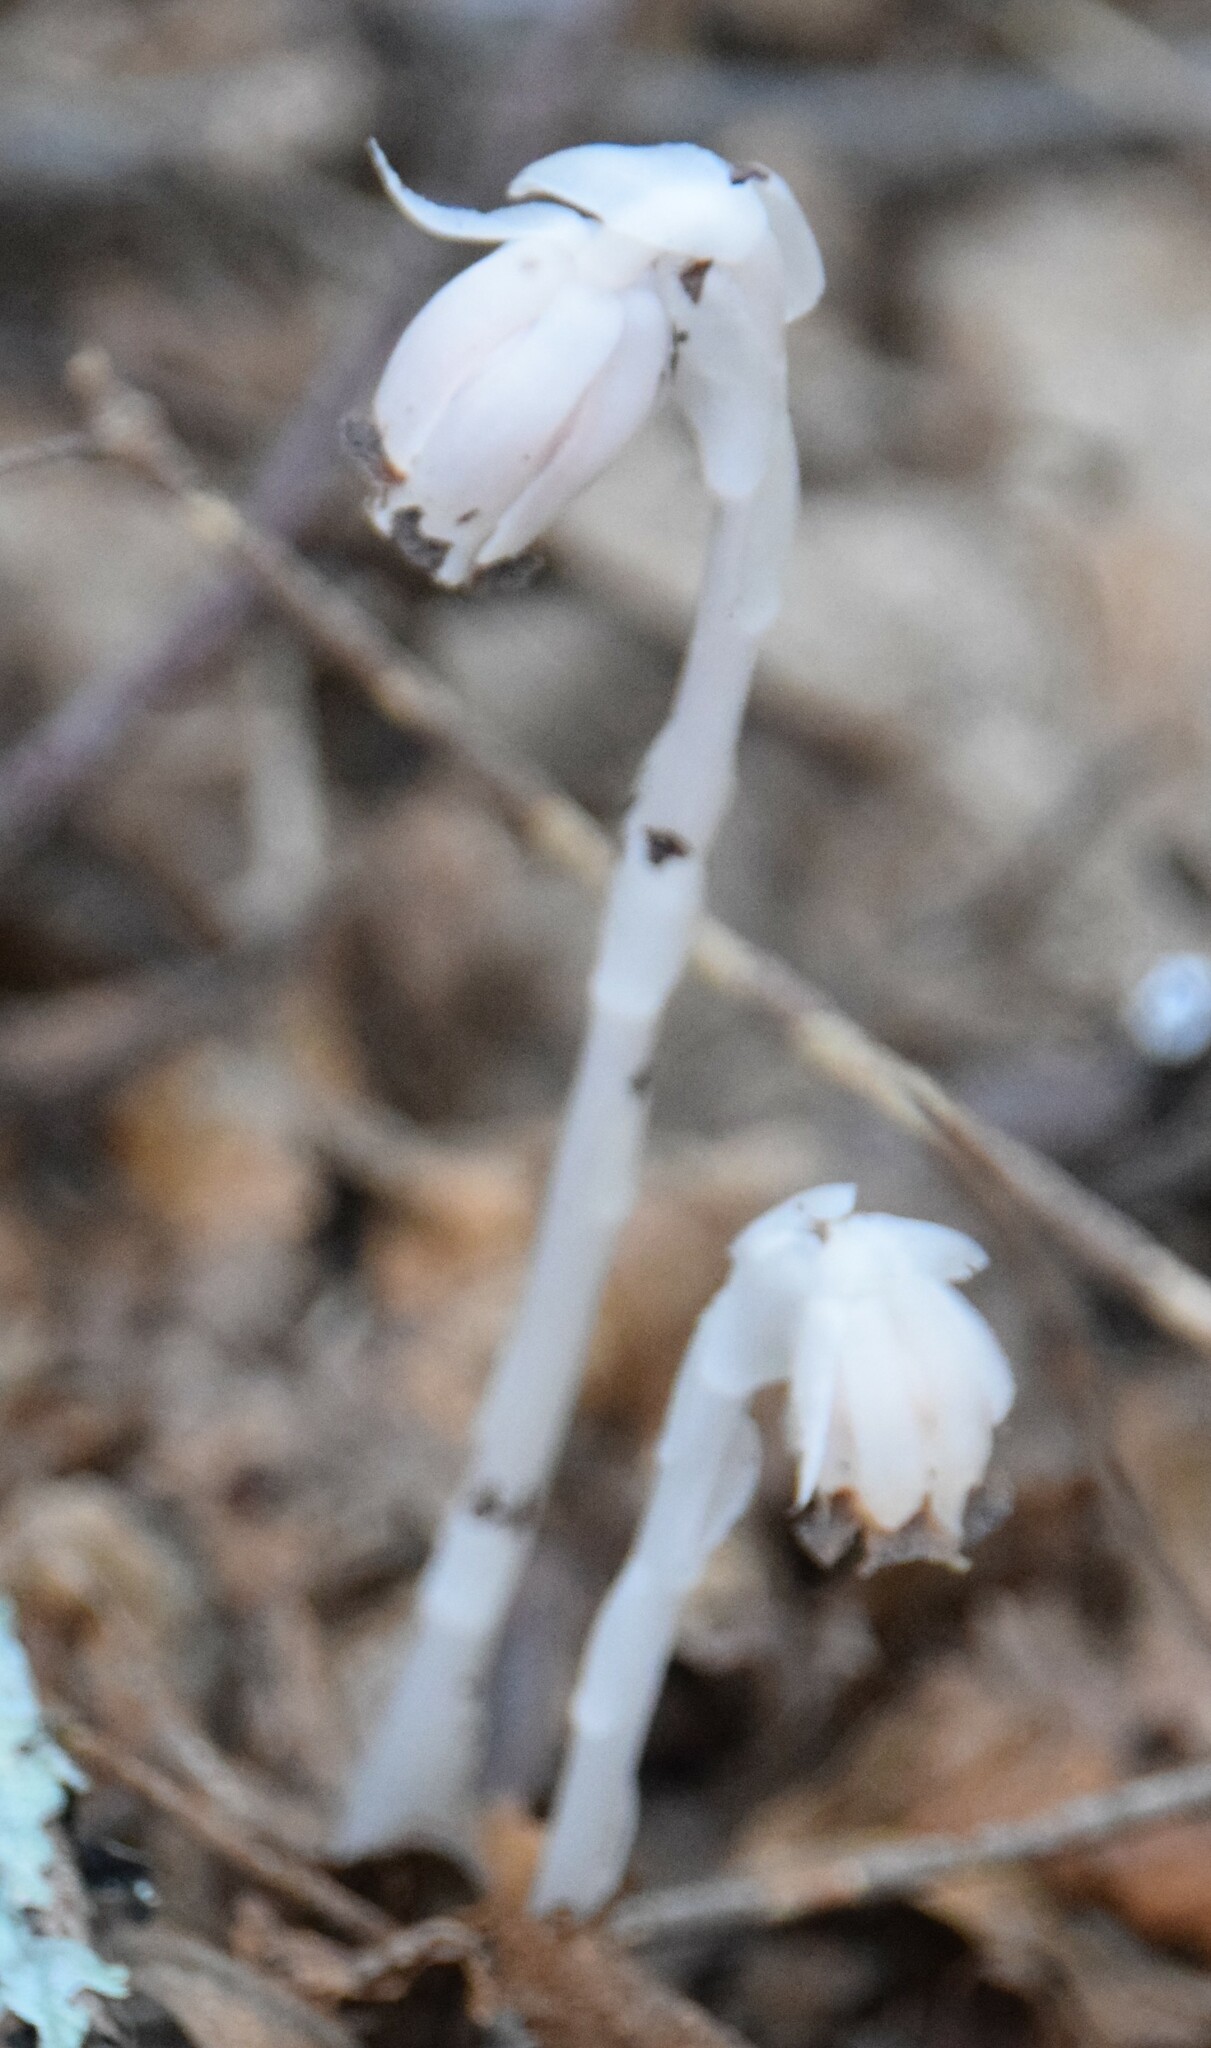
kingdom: Plantae
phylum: Tracheophyta
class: Magnoliopsida
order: Ericales
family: Ericaceae
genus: Monotropa
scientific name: Monotropa uniflora
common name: Convulsion root
